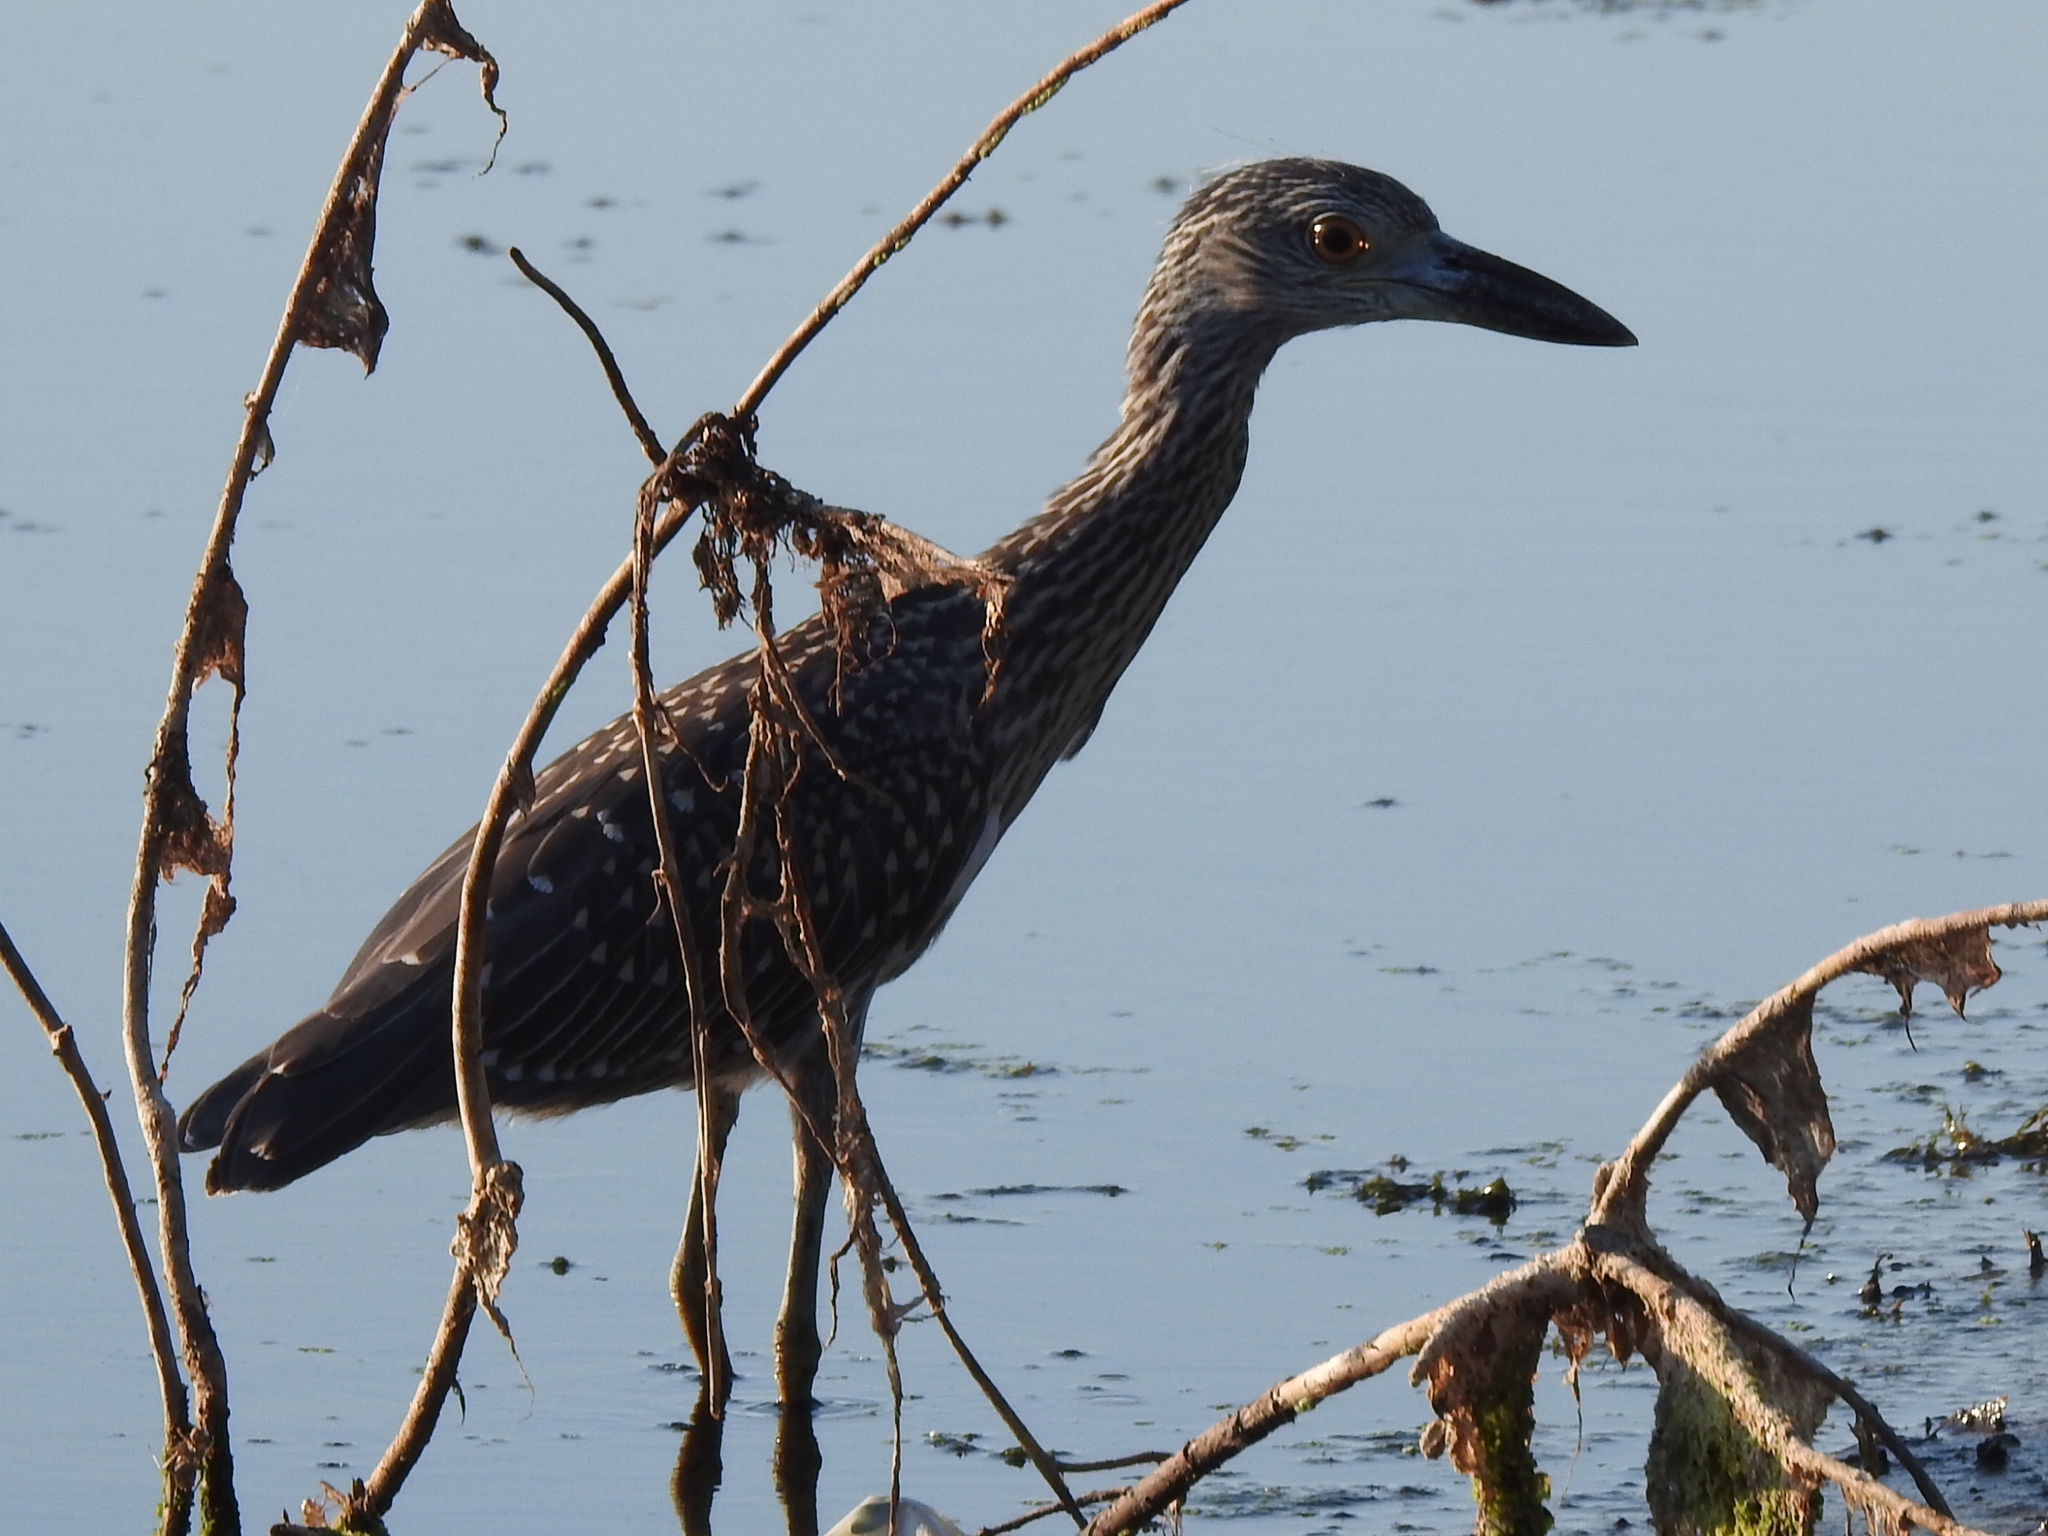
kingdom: Animalia
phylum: Chordata
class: Aves
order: Pelecaniformes
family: Ardeidae
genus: Nyctanassa
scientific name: Nyctanassa violacea
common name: Yellow-crowned night heron
